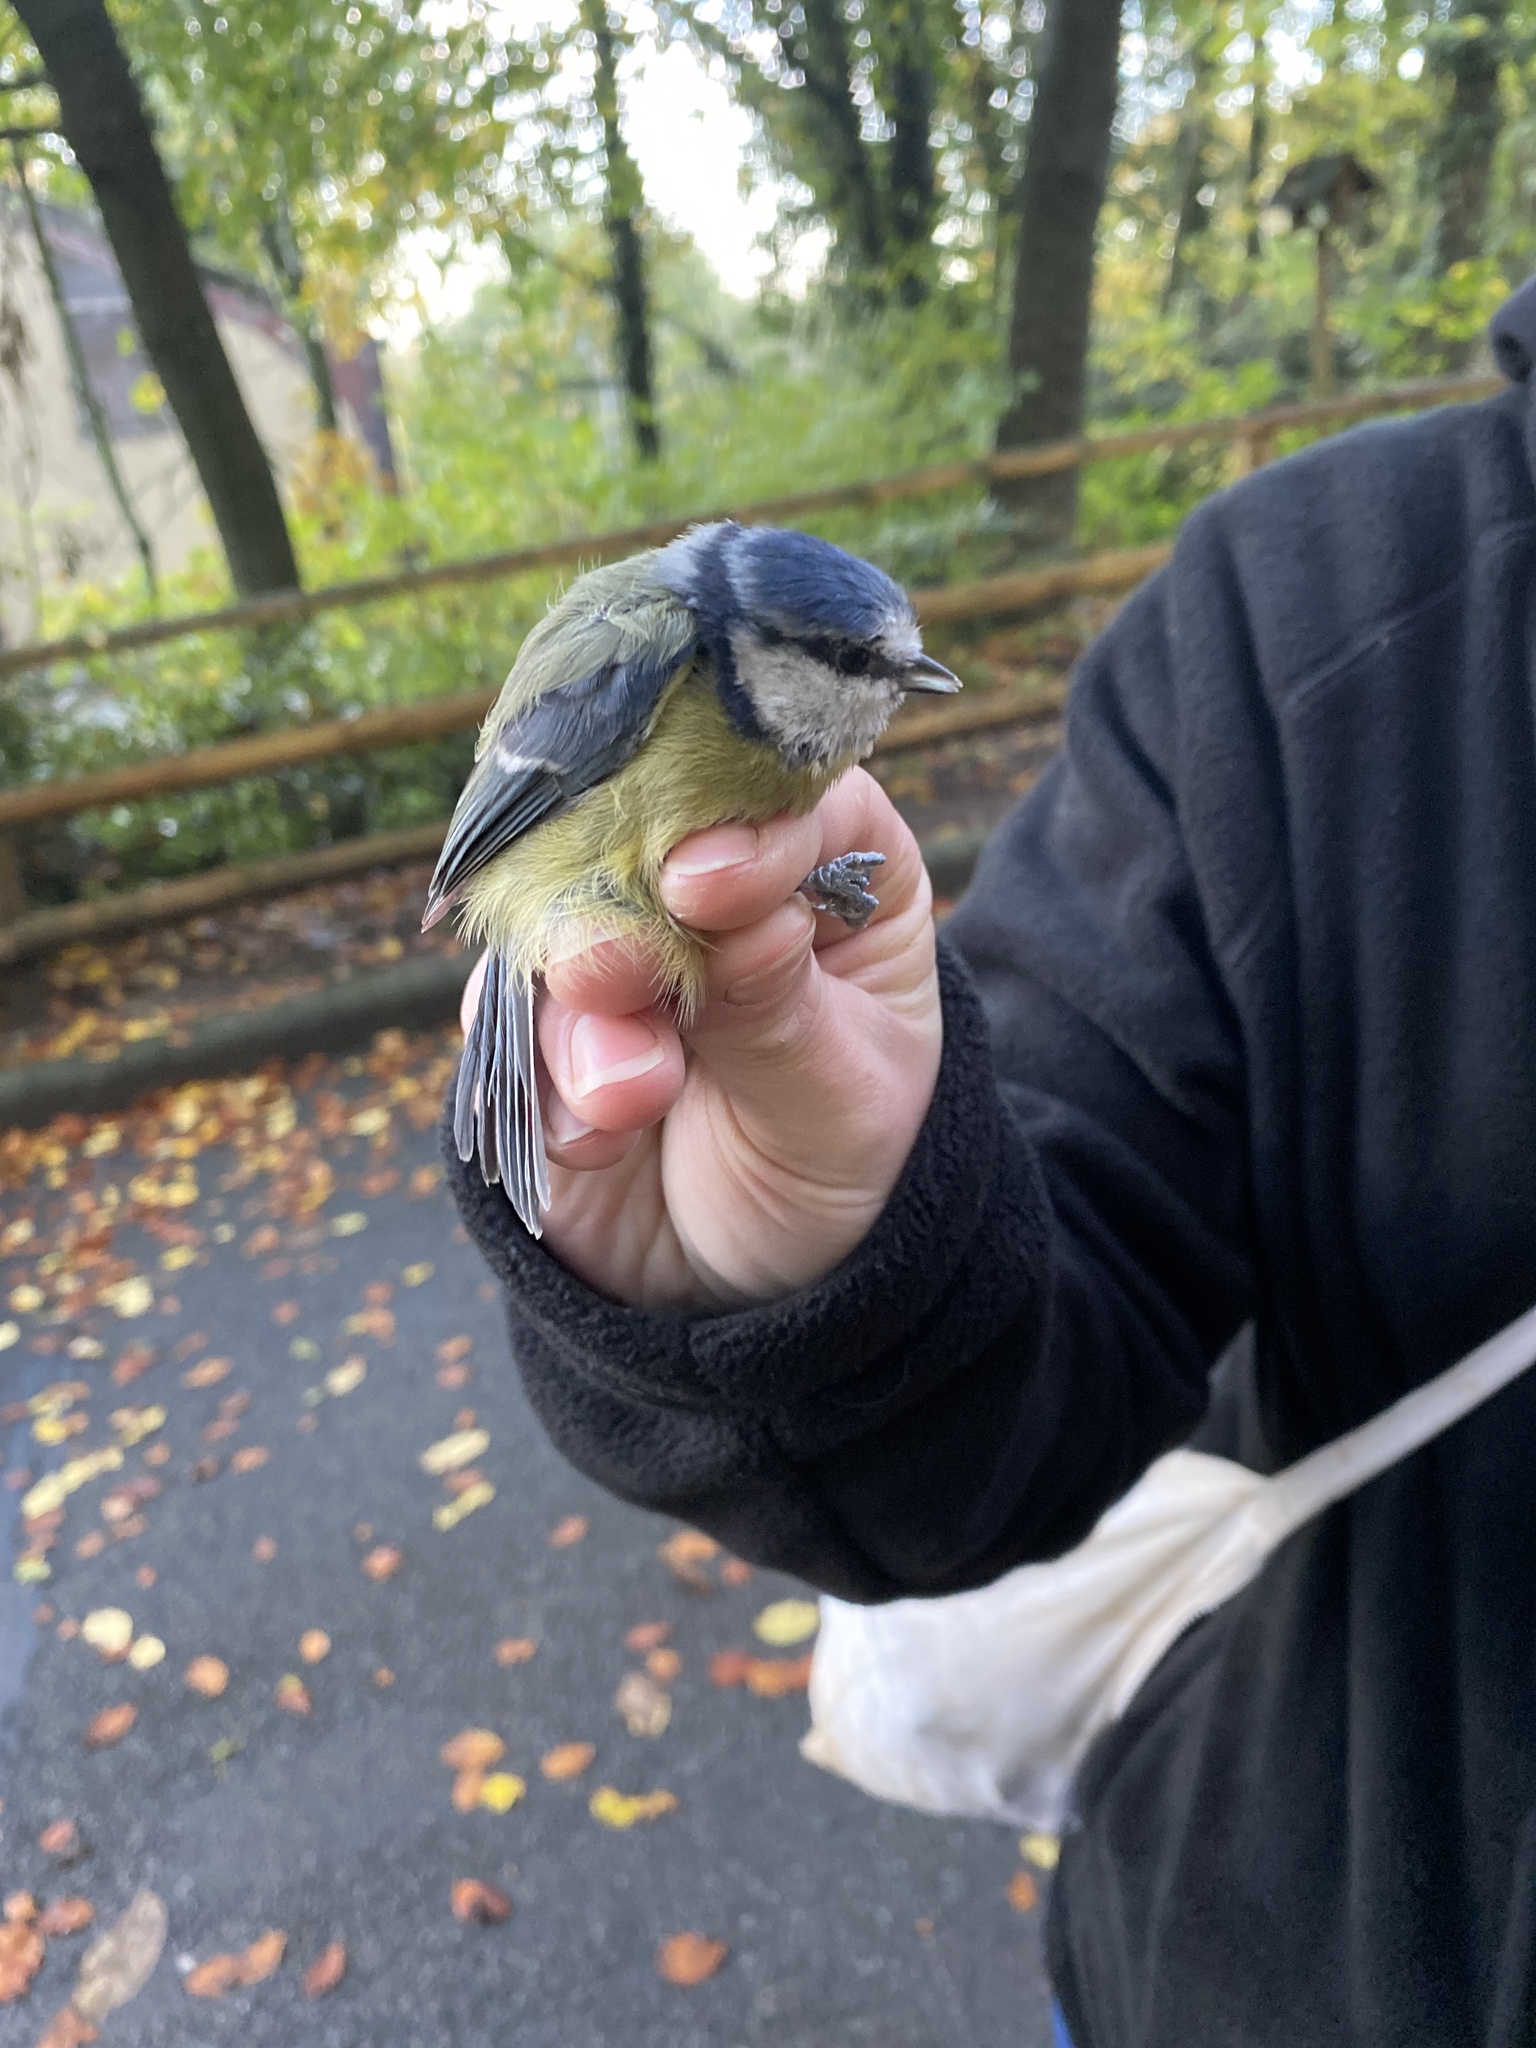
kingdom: Animalia
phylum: Chordata
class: Aves
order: Passeriformes
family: Paridae
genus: Cyanistes
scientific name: Cyanistes caeruleus
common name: Eurasian blue tit
